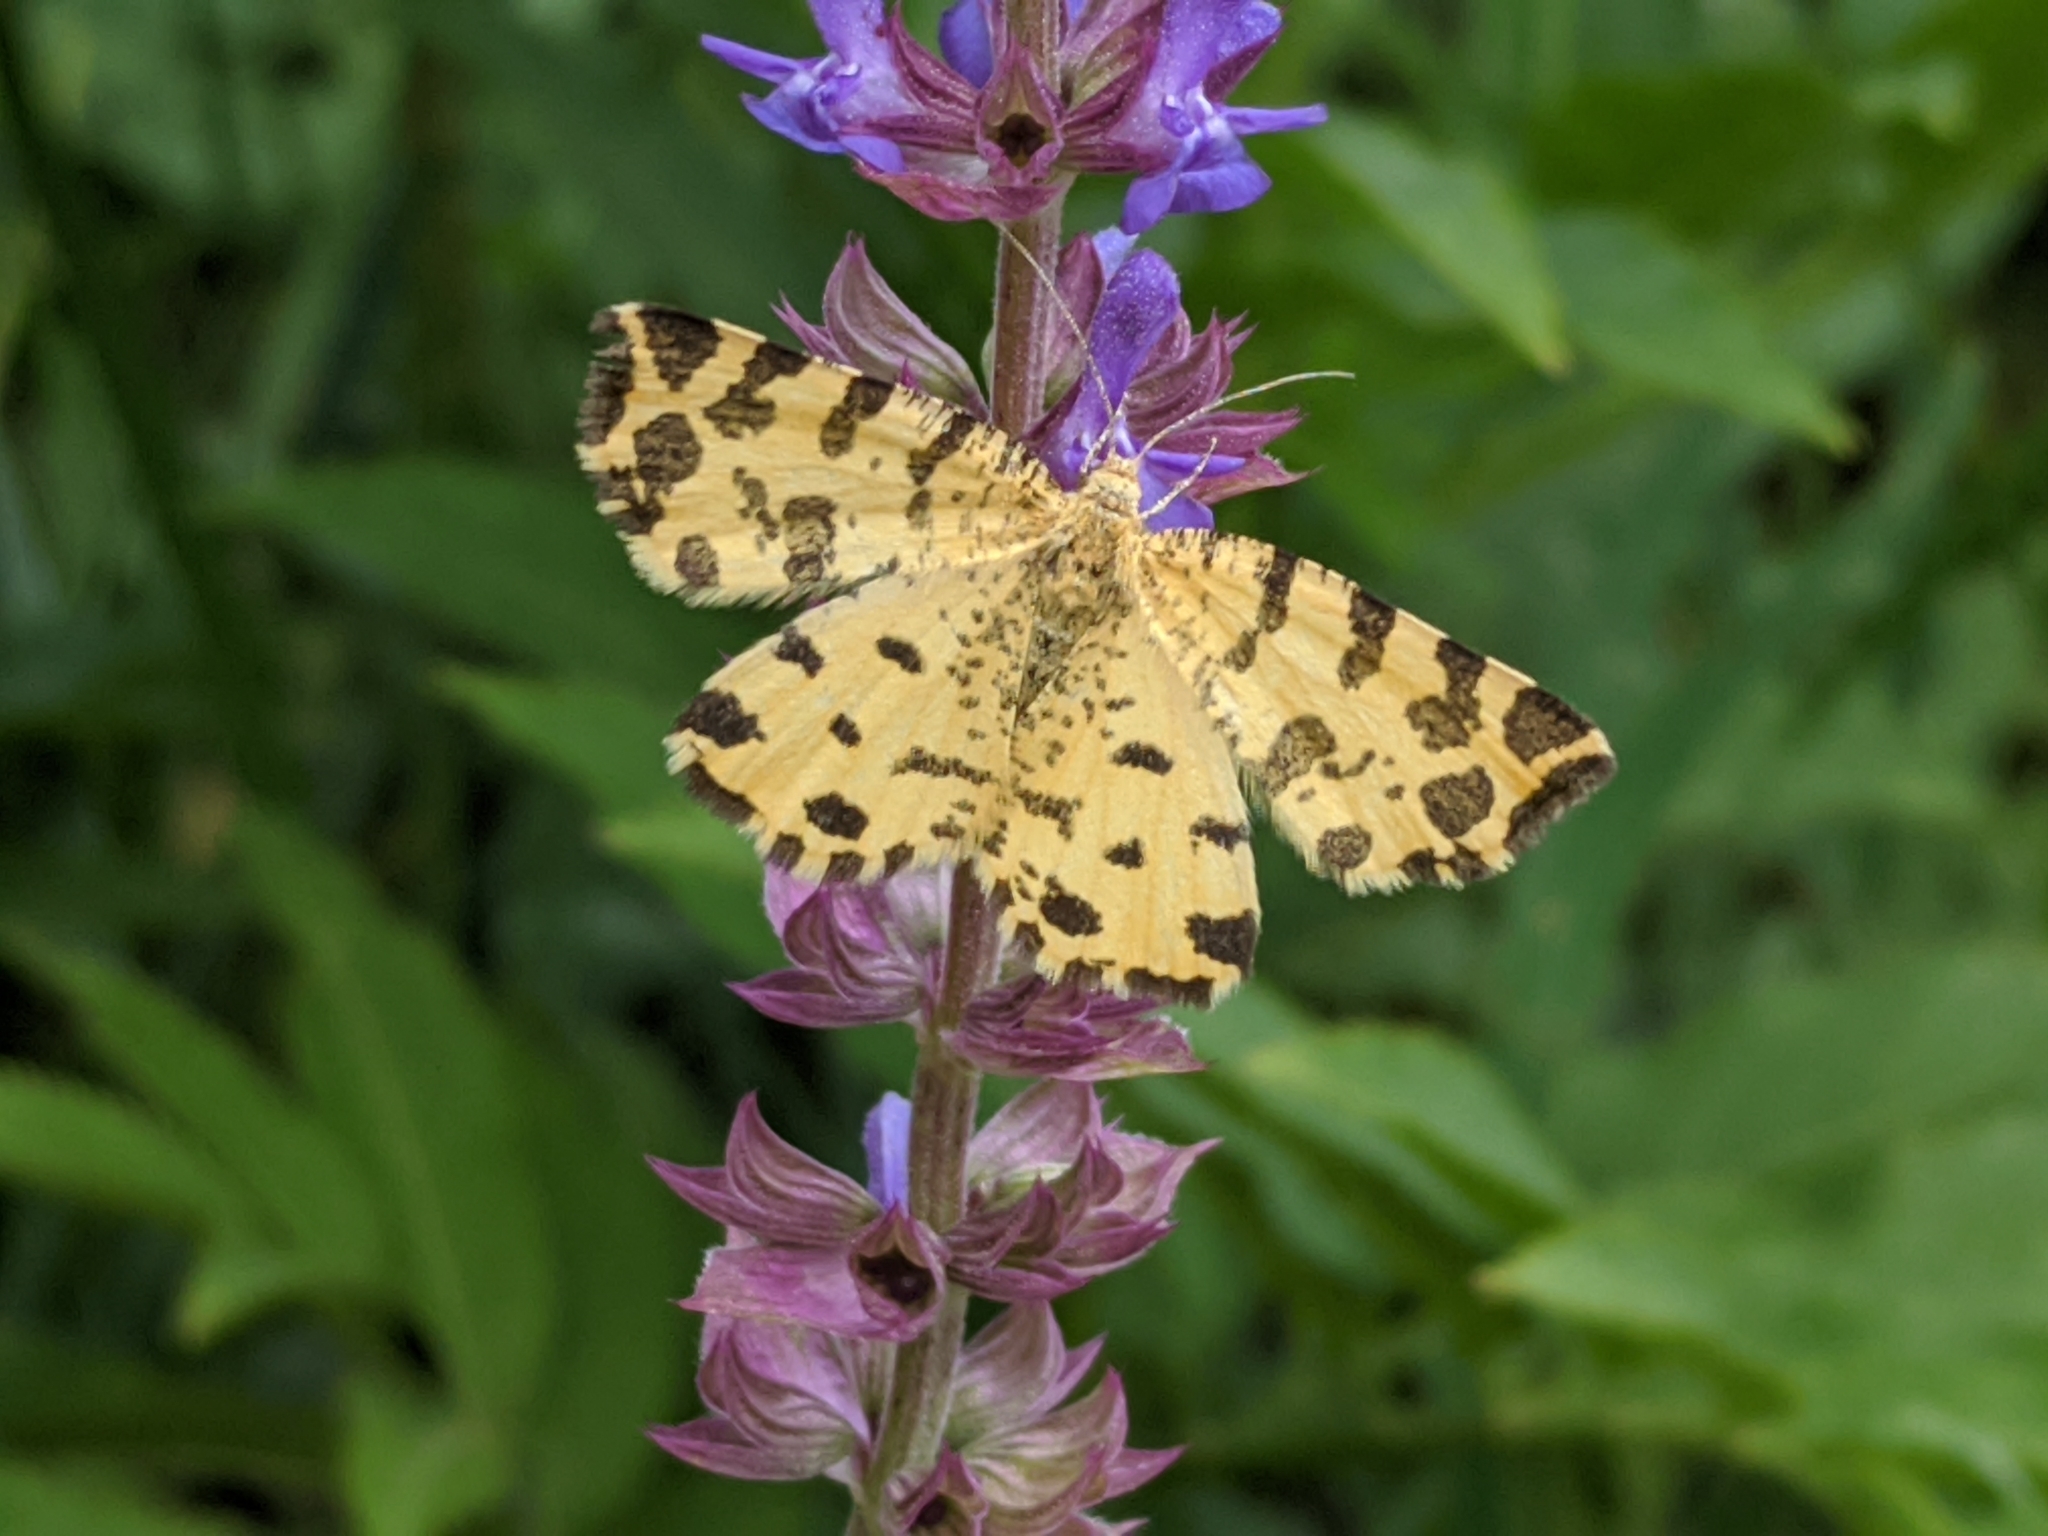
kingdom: Animalia
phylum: Arthropoda
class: Insecta
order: Lepidoptera
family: Geometridae
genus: Pseudopanthera
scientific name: Pseudopanthera macularia
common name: Speckled yellow
